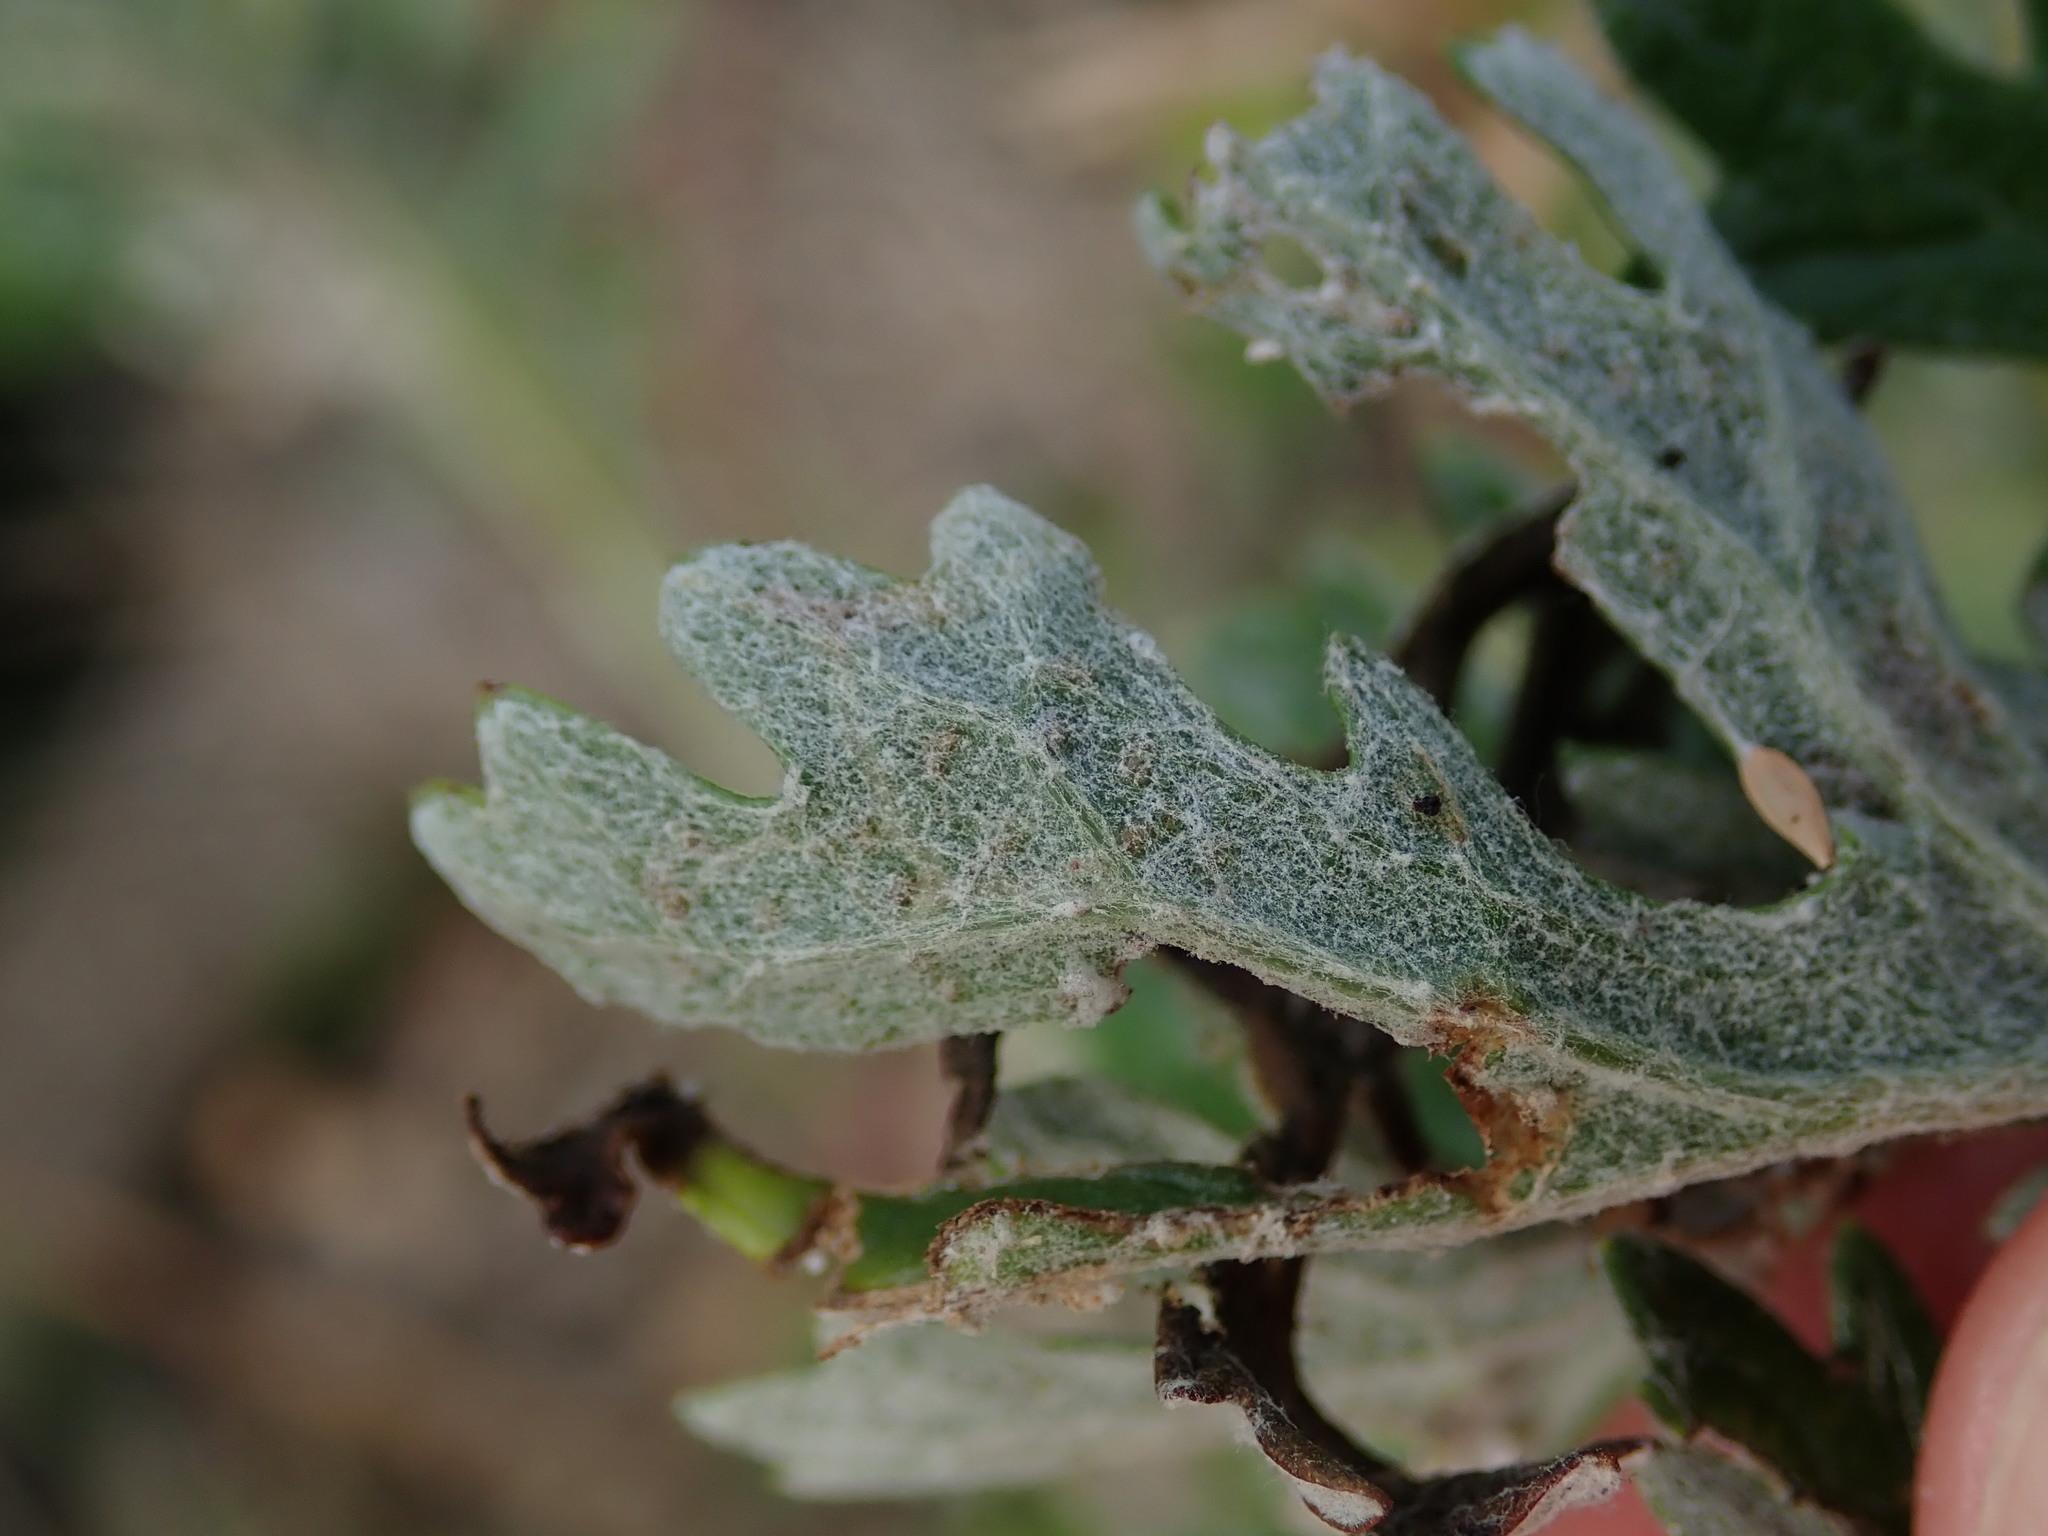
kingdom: Plantae
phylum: Tracheophyta
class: Magnoliopsida
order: Asterales
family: Asteraceae
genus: Jacobaea
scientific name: Jacobaea albescens
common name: Hybrid ragwort
